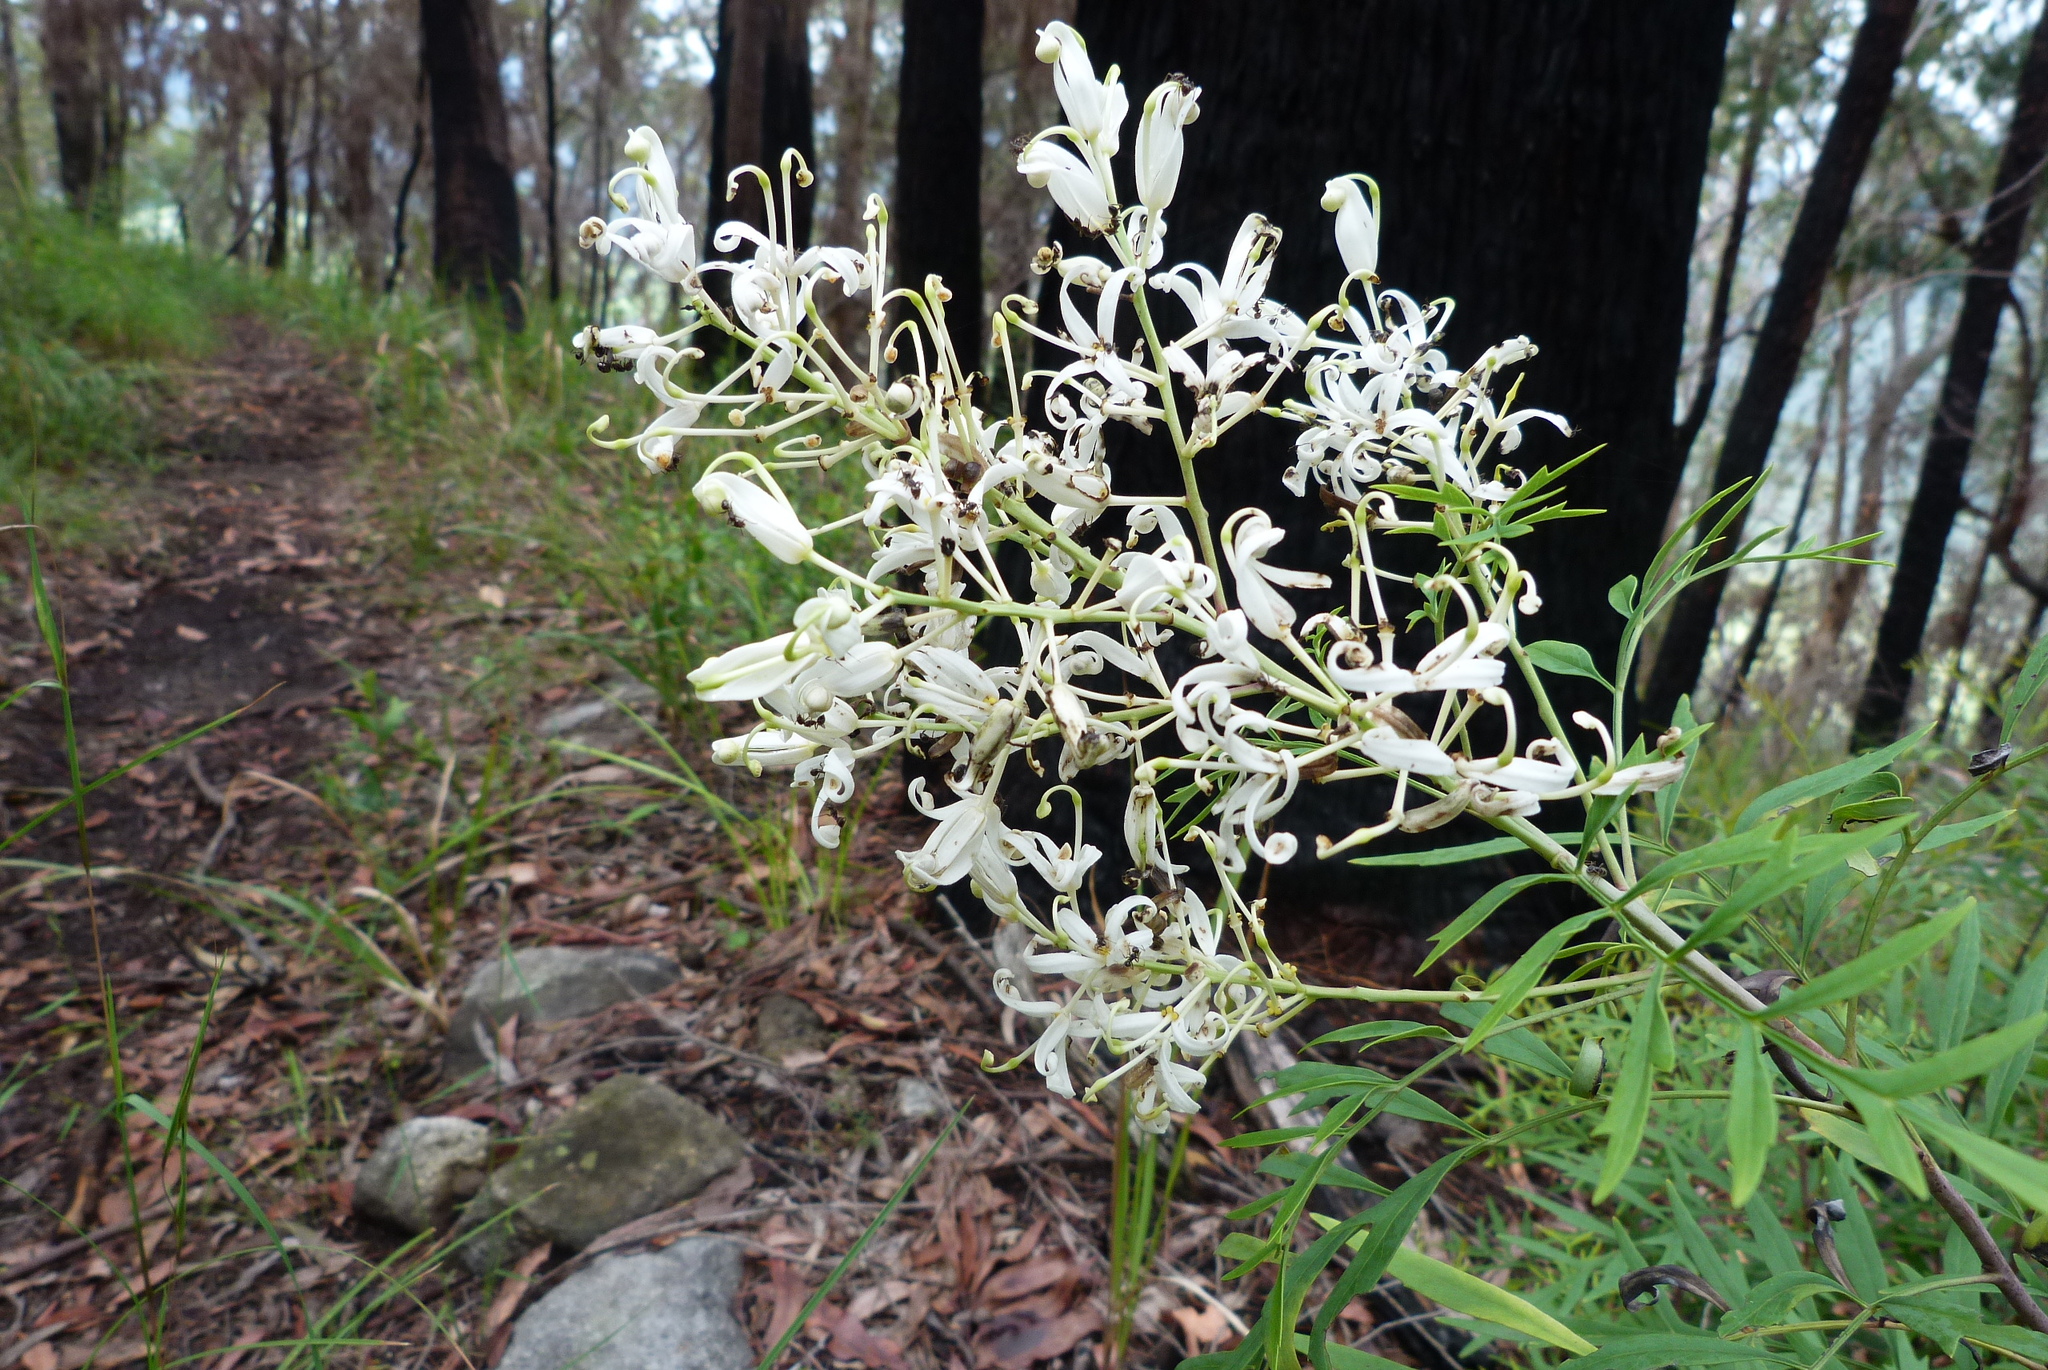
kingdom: Plantae
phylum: Tracheophyta
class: Magnoliopsida
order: Proteales
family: Proteaceae
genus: Lomatia
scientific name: Lomatia silaifolia
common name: Crinklebush
